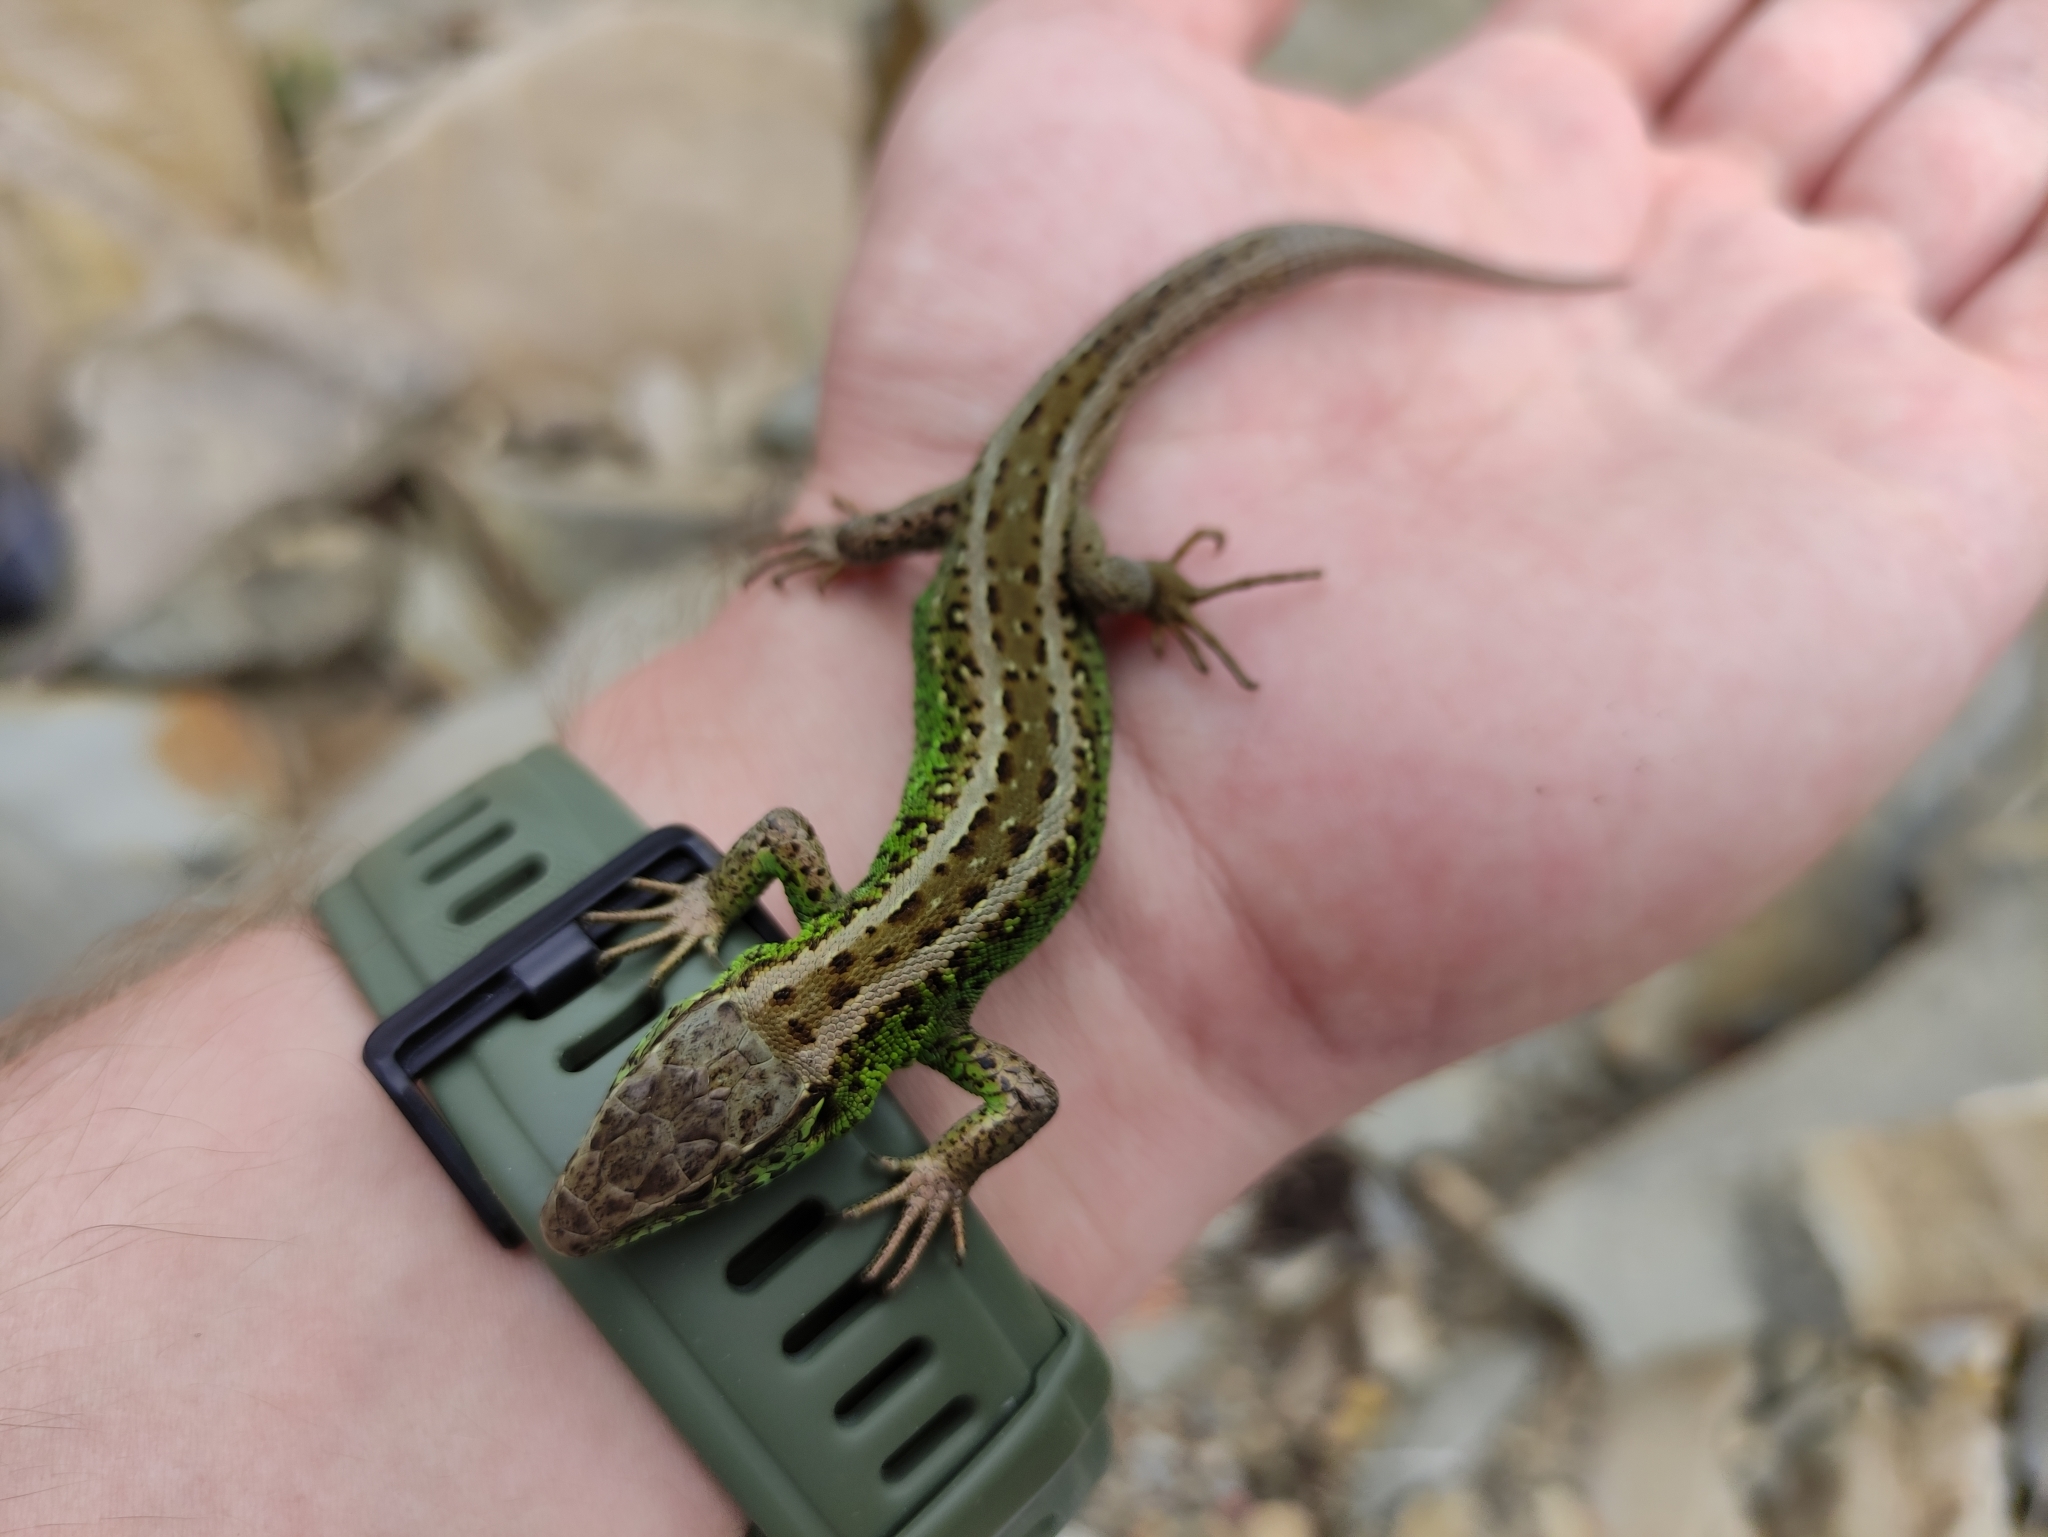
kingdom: Animalia
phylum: Chordata
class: Squamata
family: Lacertidae
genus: Lacerta
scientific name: Lacerta agilis
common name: Sand lizard
